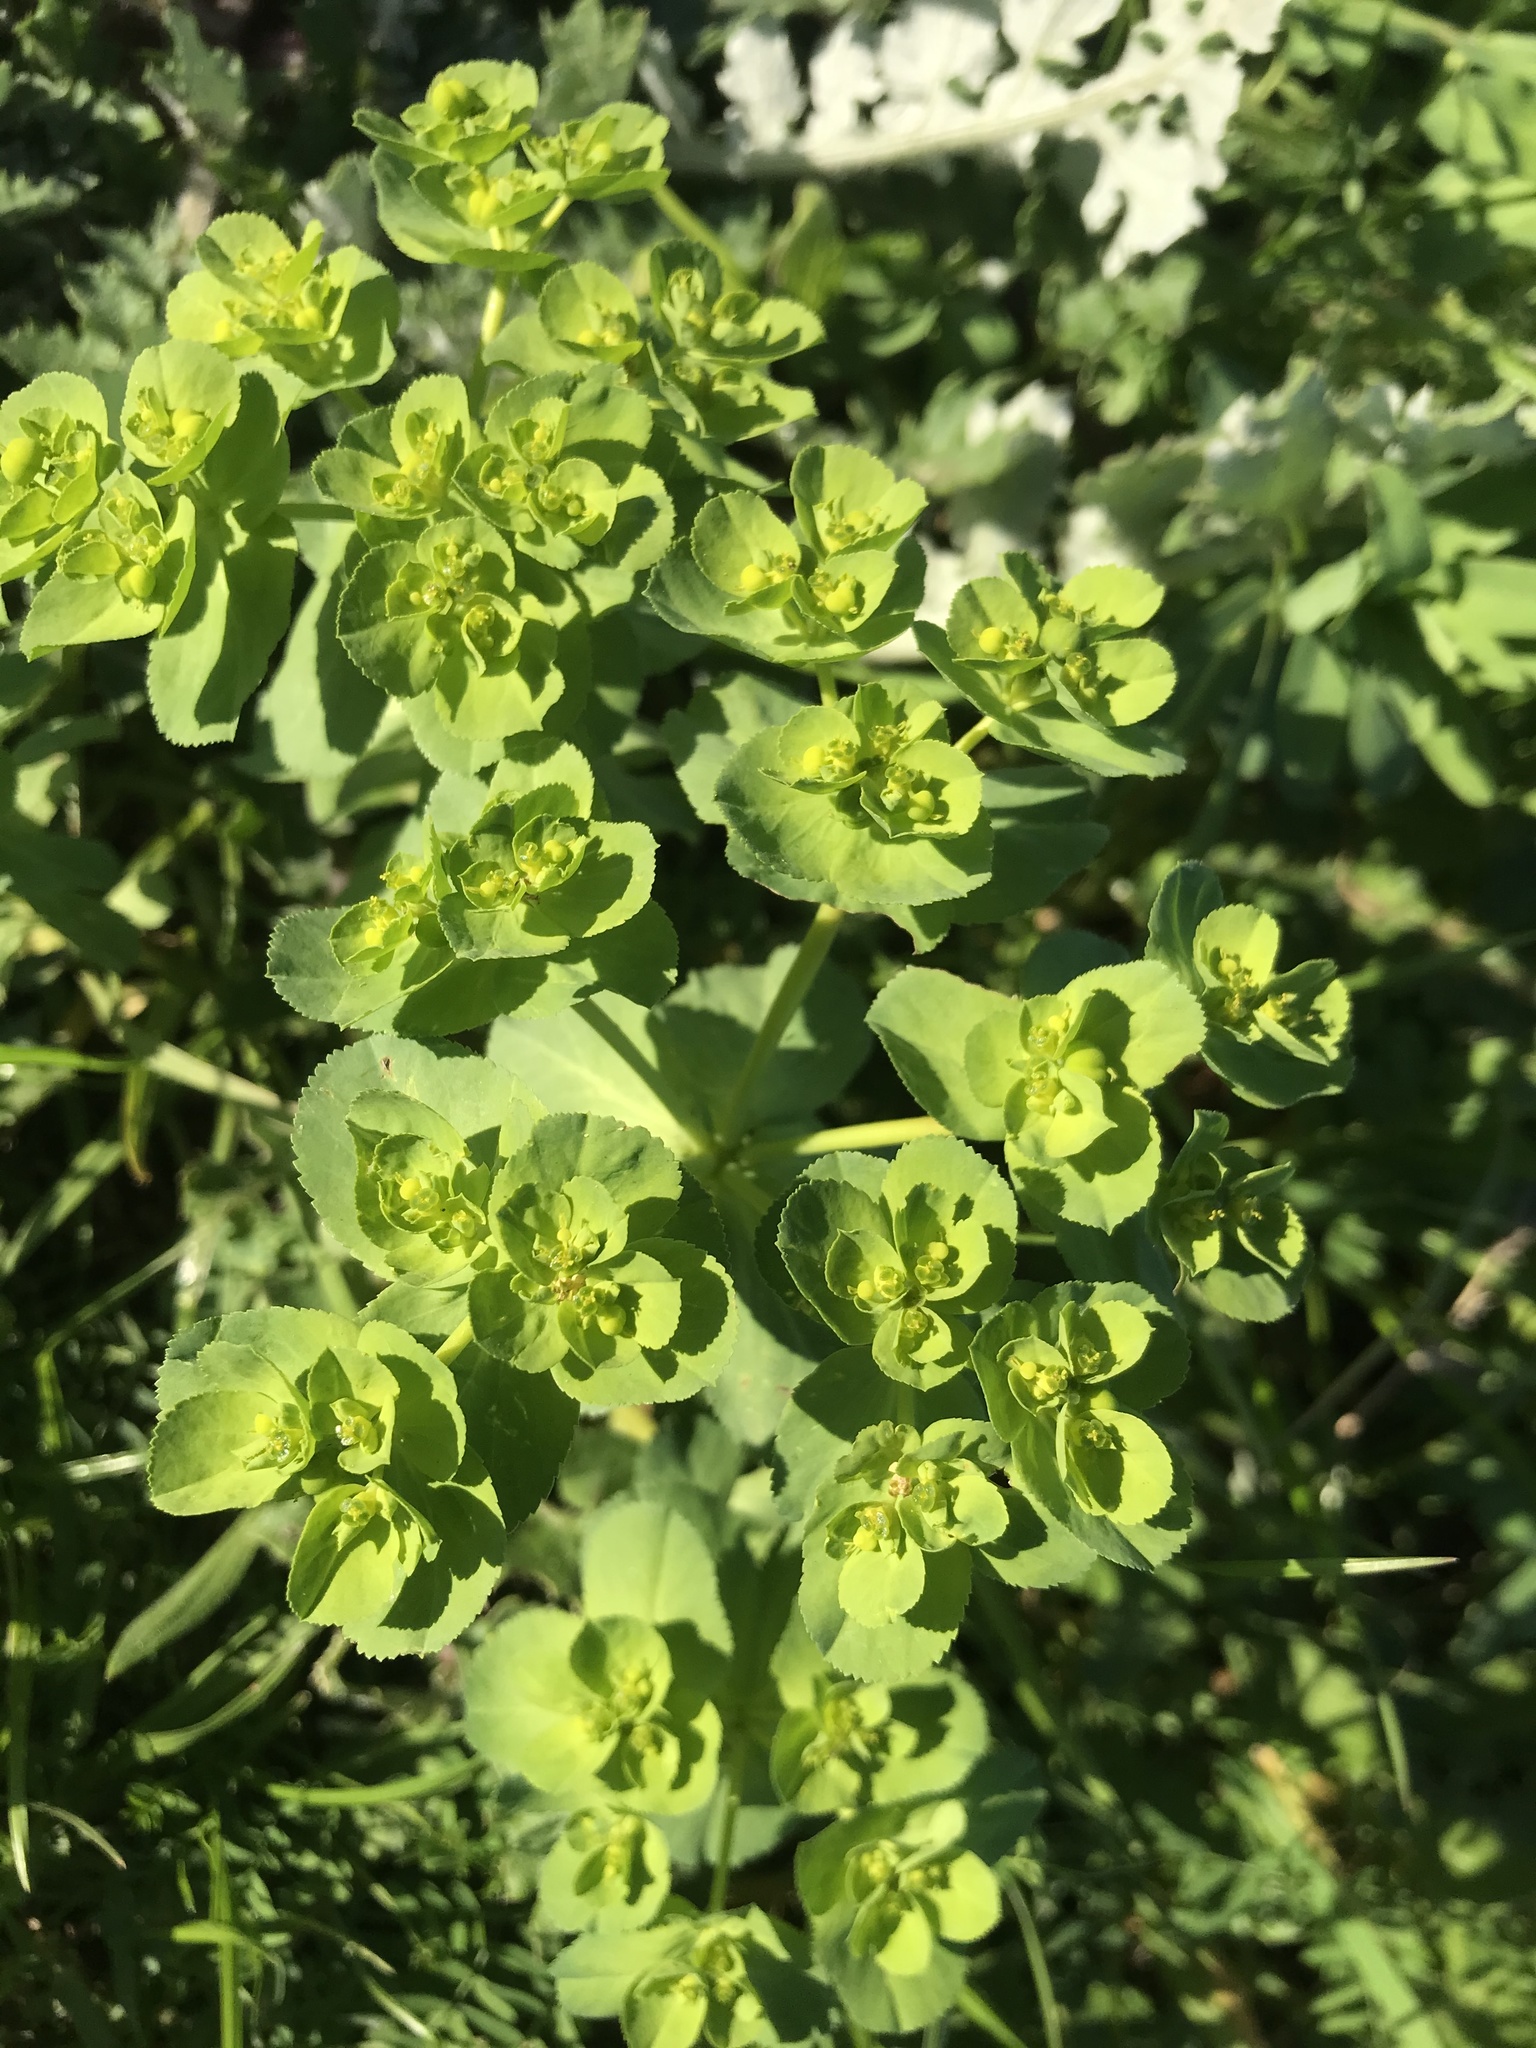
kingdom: Plantae
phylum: Tracheophyta
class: Magnoliopsida
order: Malpighiales
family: Euphorbiaceae
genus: Euphorbia
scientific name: Euphorbia helioscopia
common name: Sun spurge
